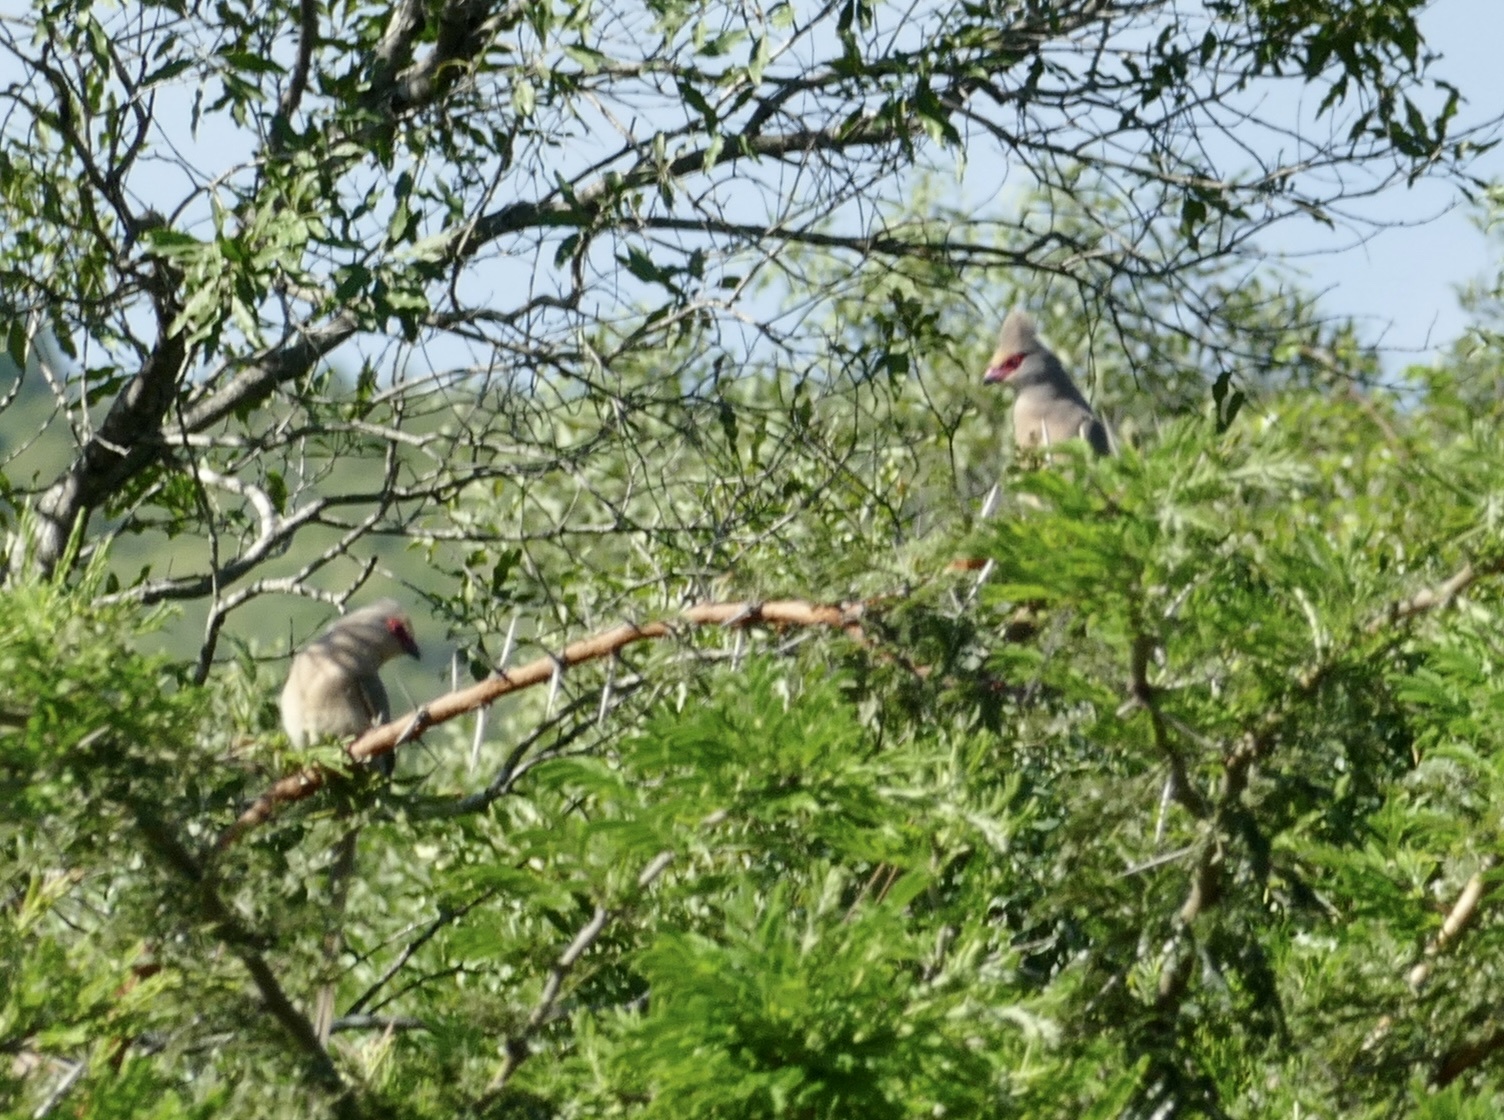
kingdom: Animalia
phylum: Chordata
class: Aves
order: Coliiformes
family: Coliidae
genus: Urocolius
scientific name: Urocolius indicus
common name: Red-faced mousebird
